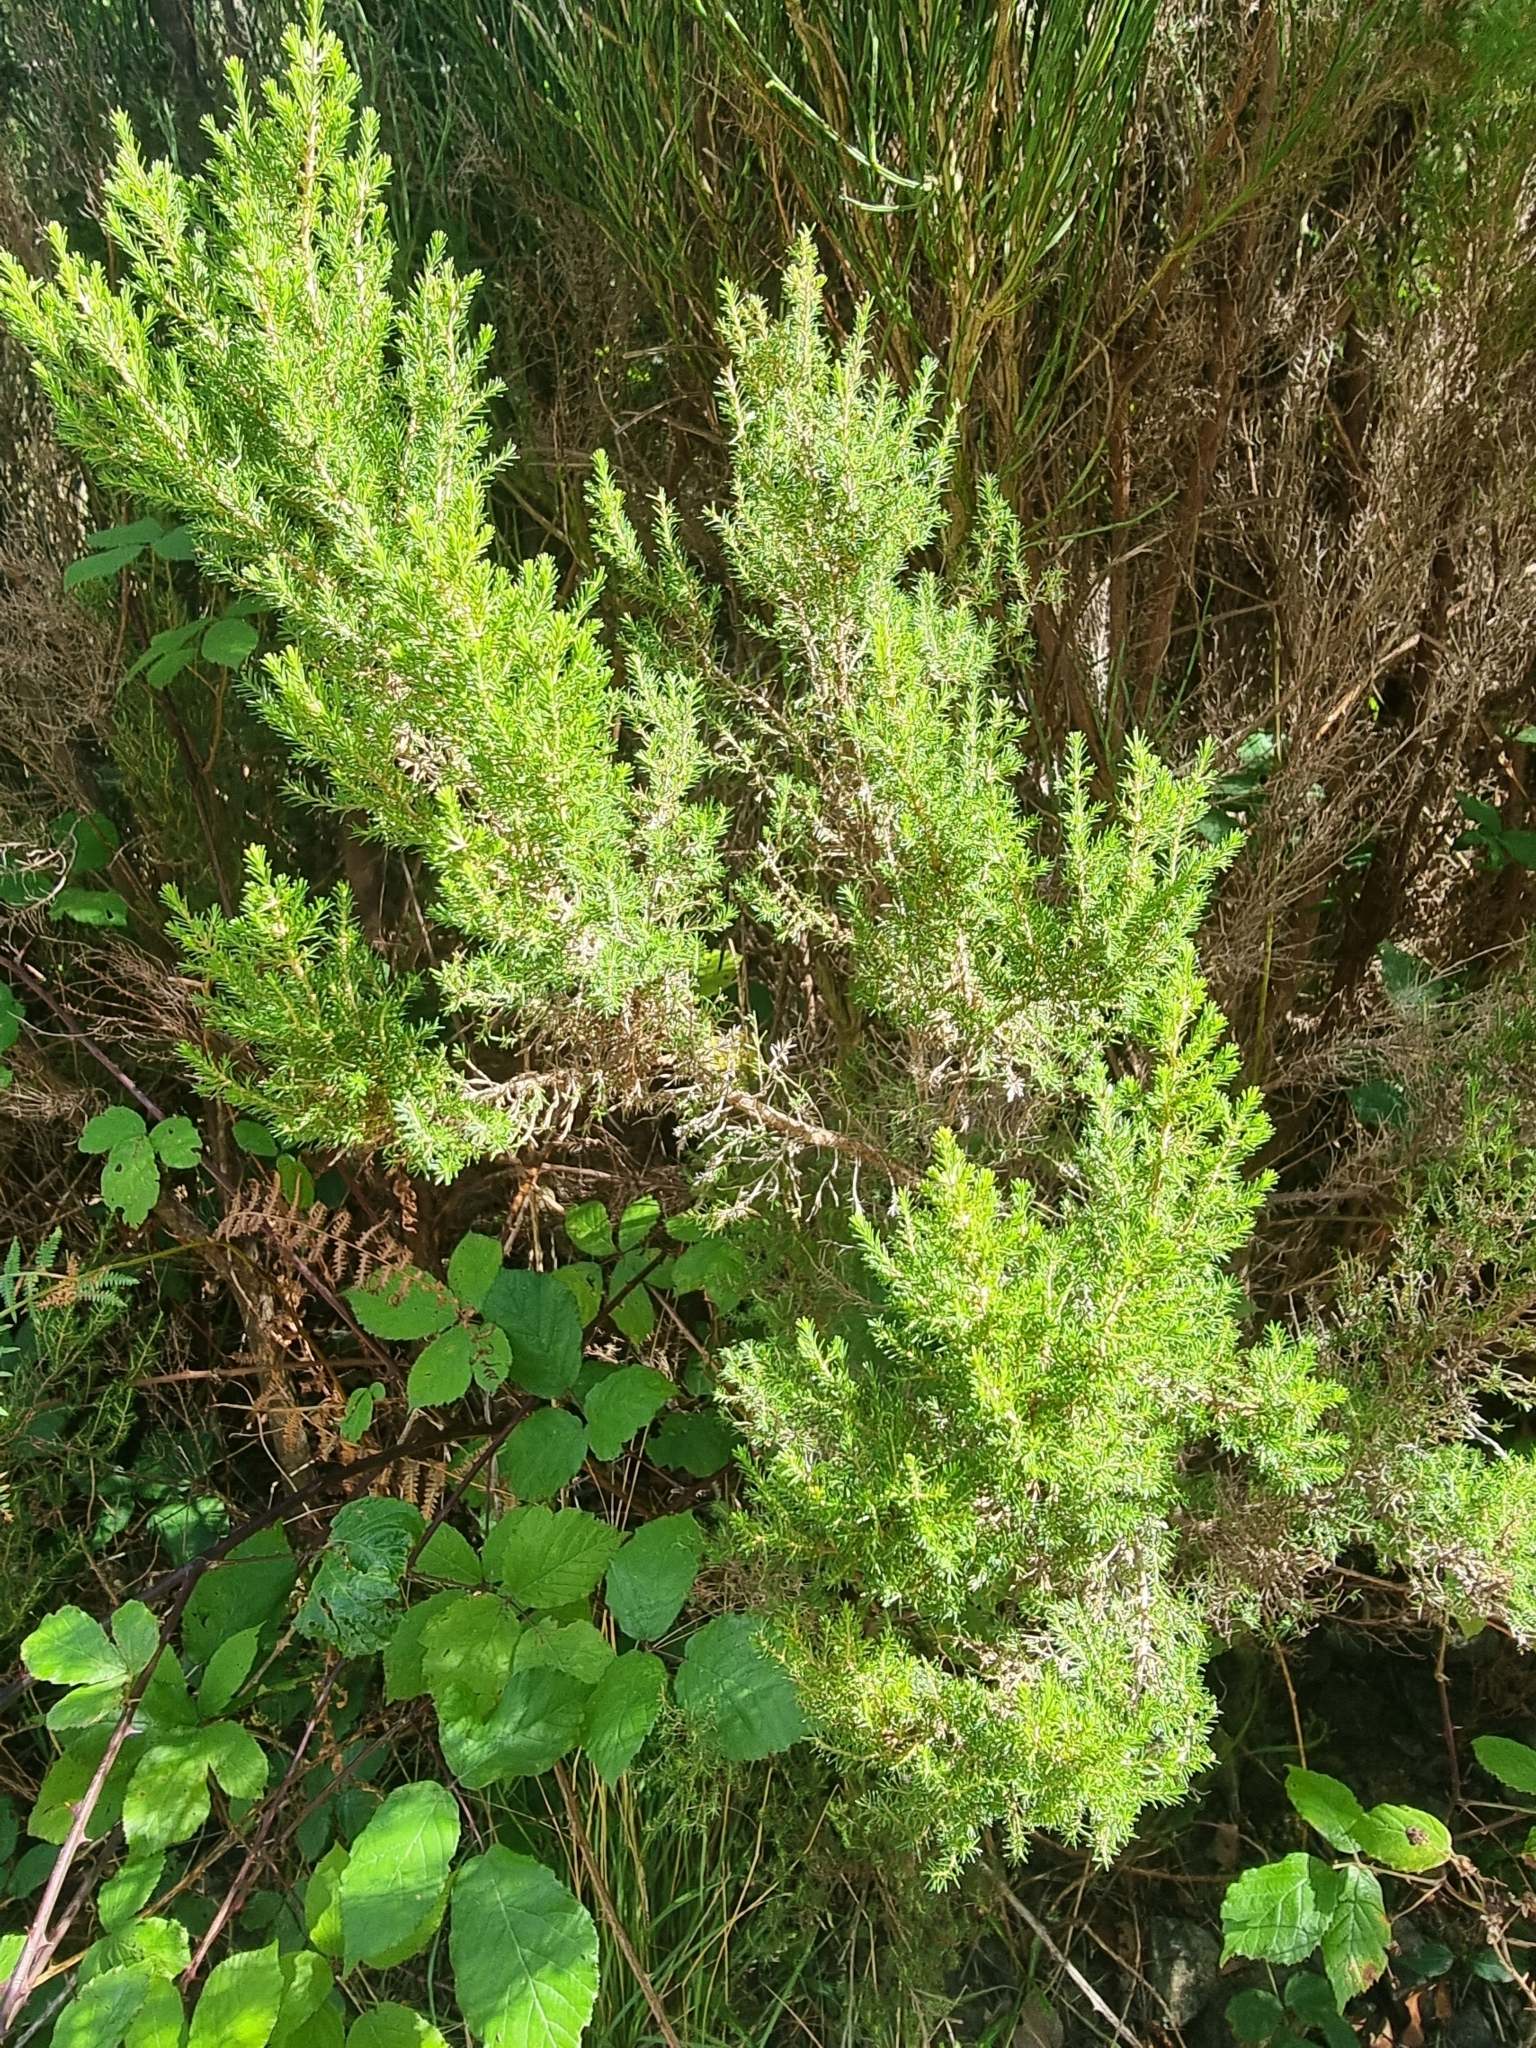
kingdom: Plantae
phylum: Tracheophyta
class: Magnoliopsida
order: Ericales
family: Ericaceae
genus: Erica
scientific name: Erica canariensis
